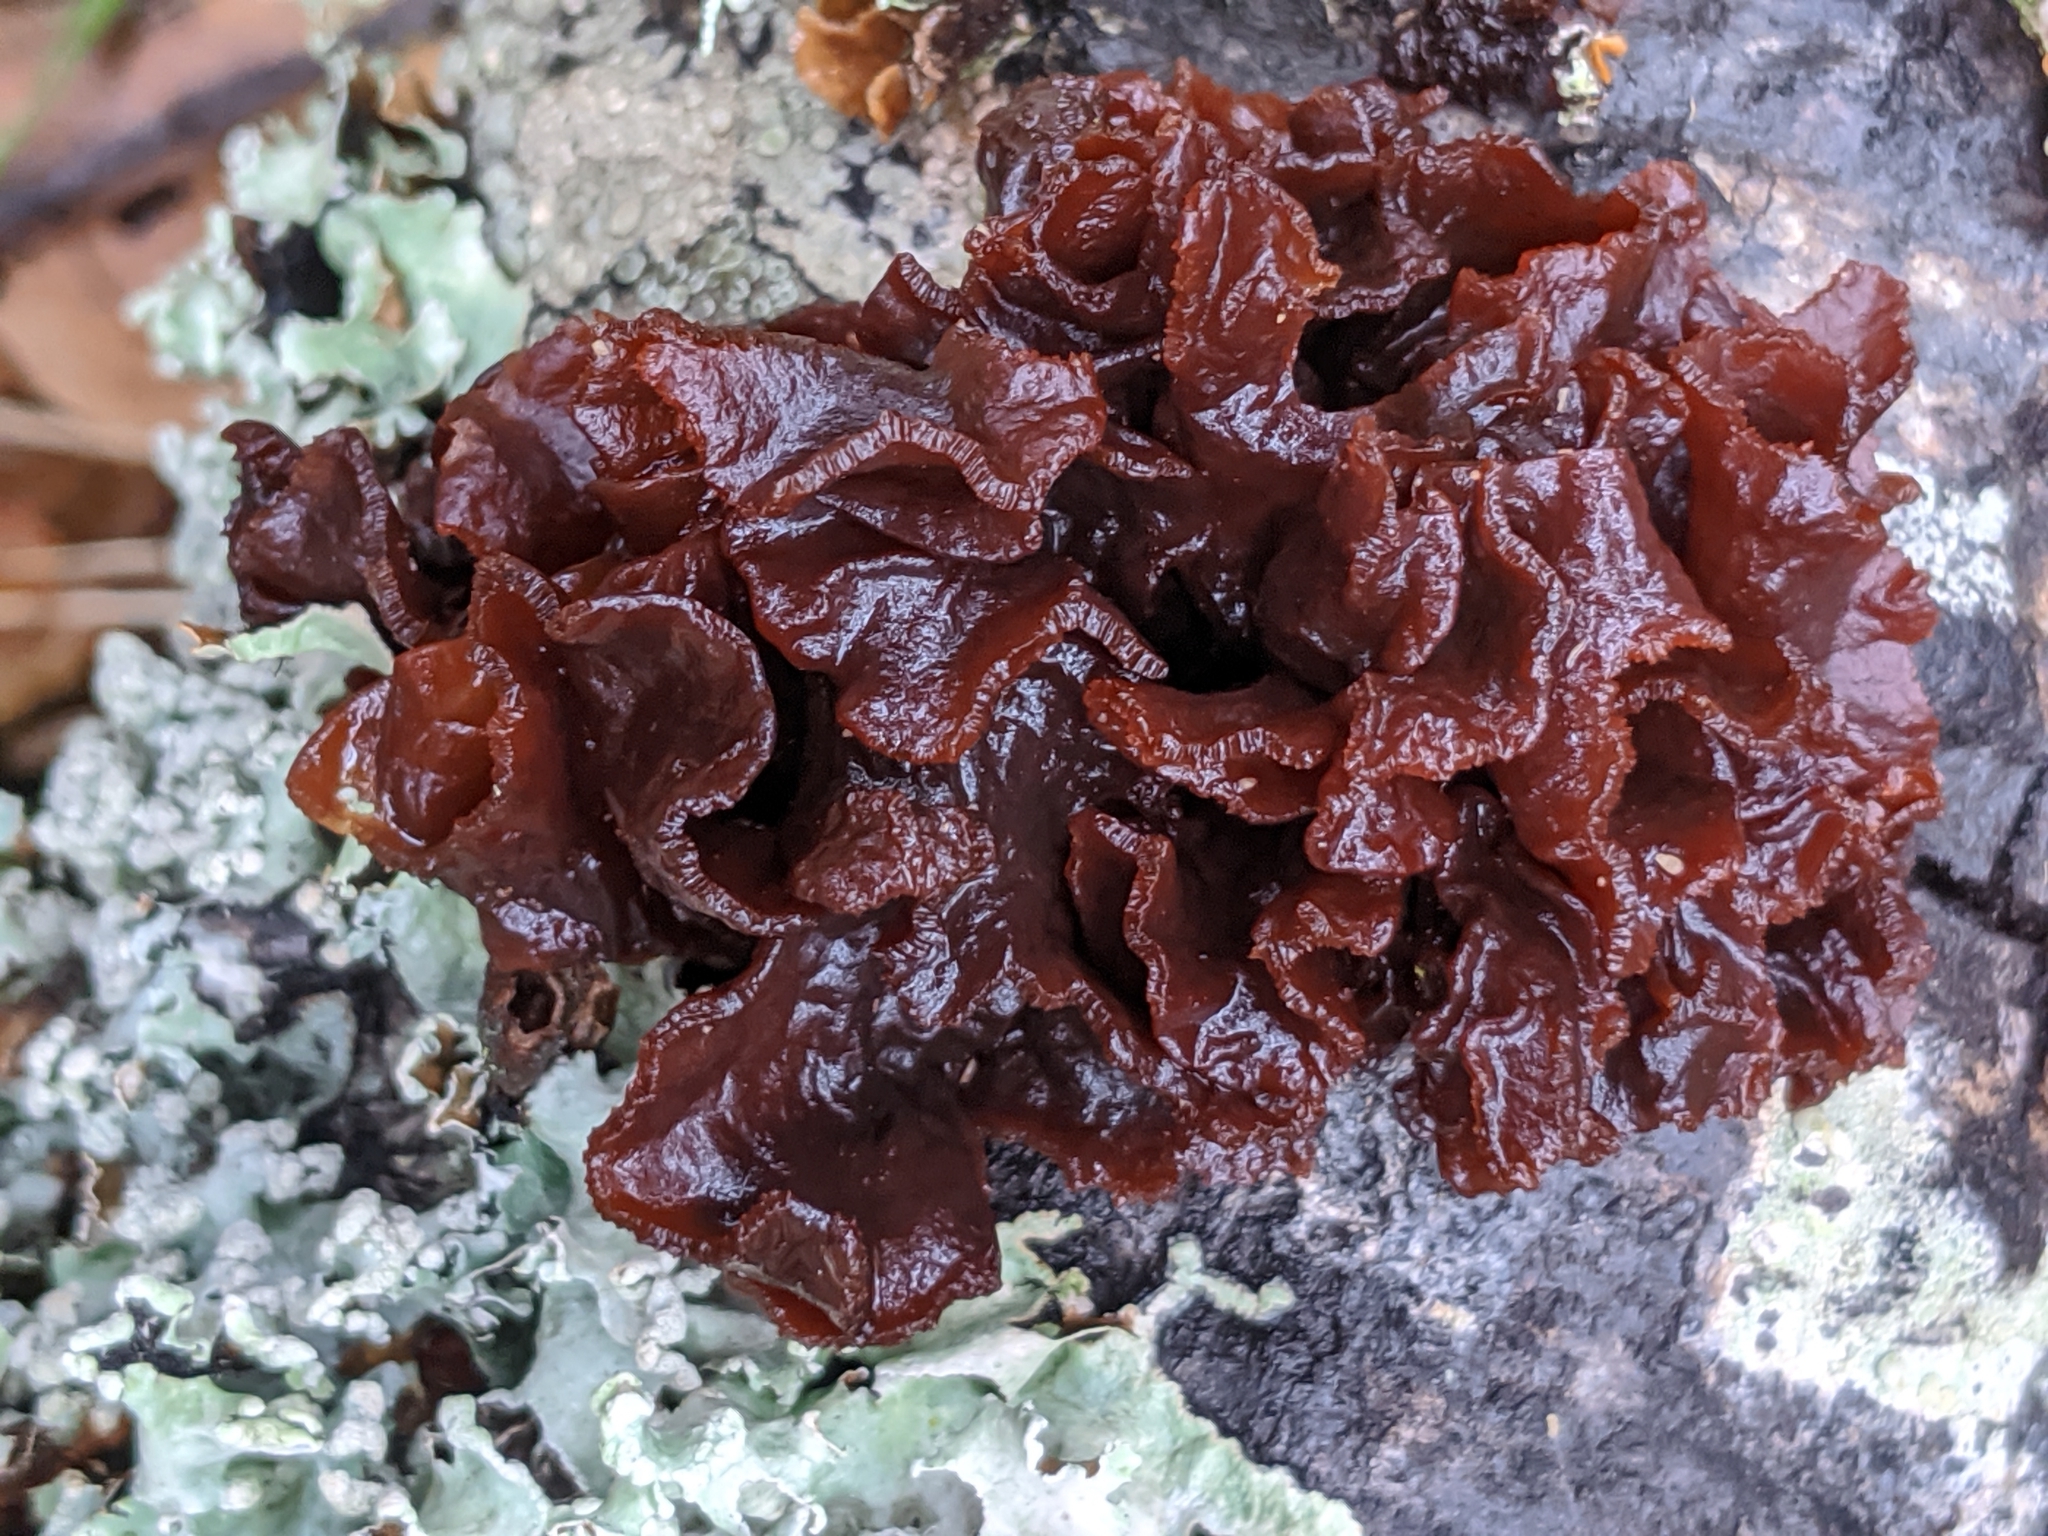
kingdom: Fungi
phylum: Basidiomycota
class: Tremellomycetes
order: Tremellales
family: Tremellaceae
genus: Phaeotremella
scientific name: Phaeotremella foliacea
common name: Leafy brain
